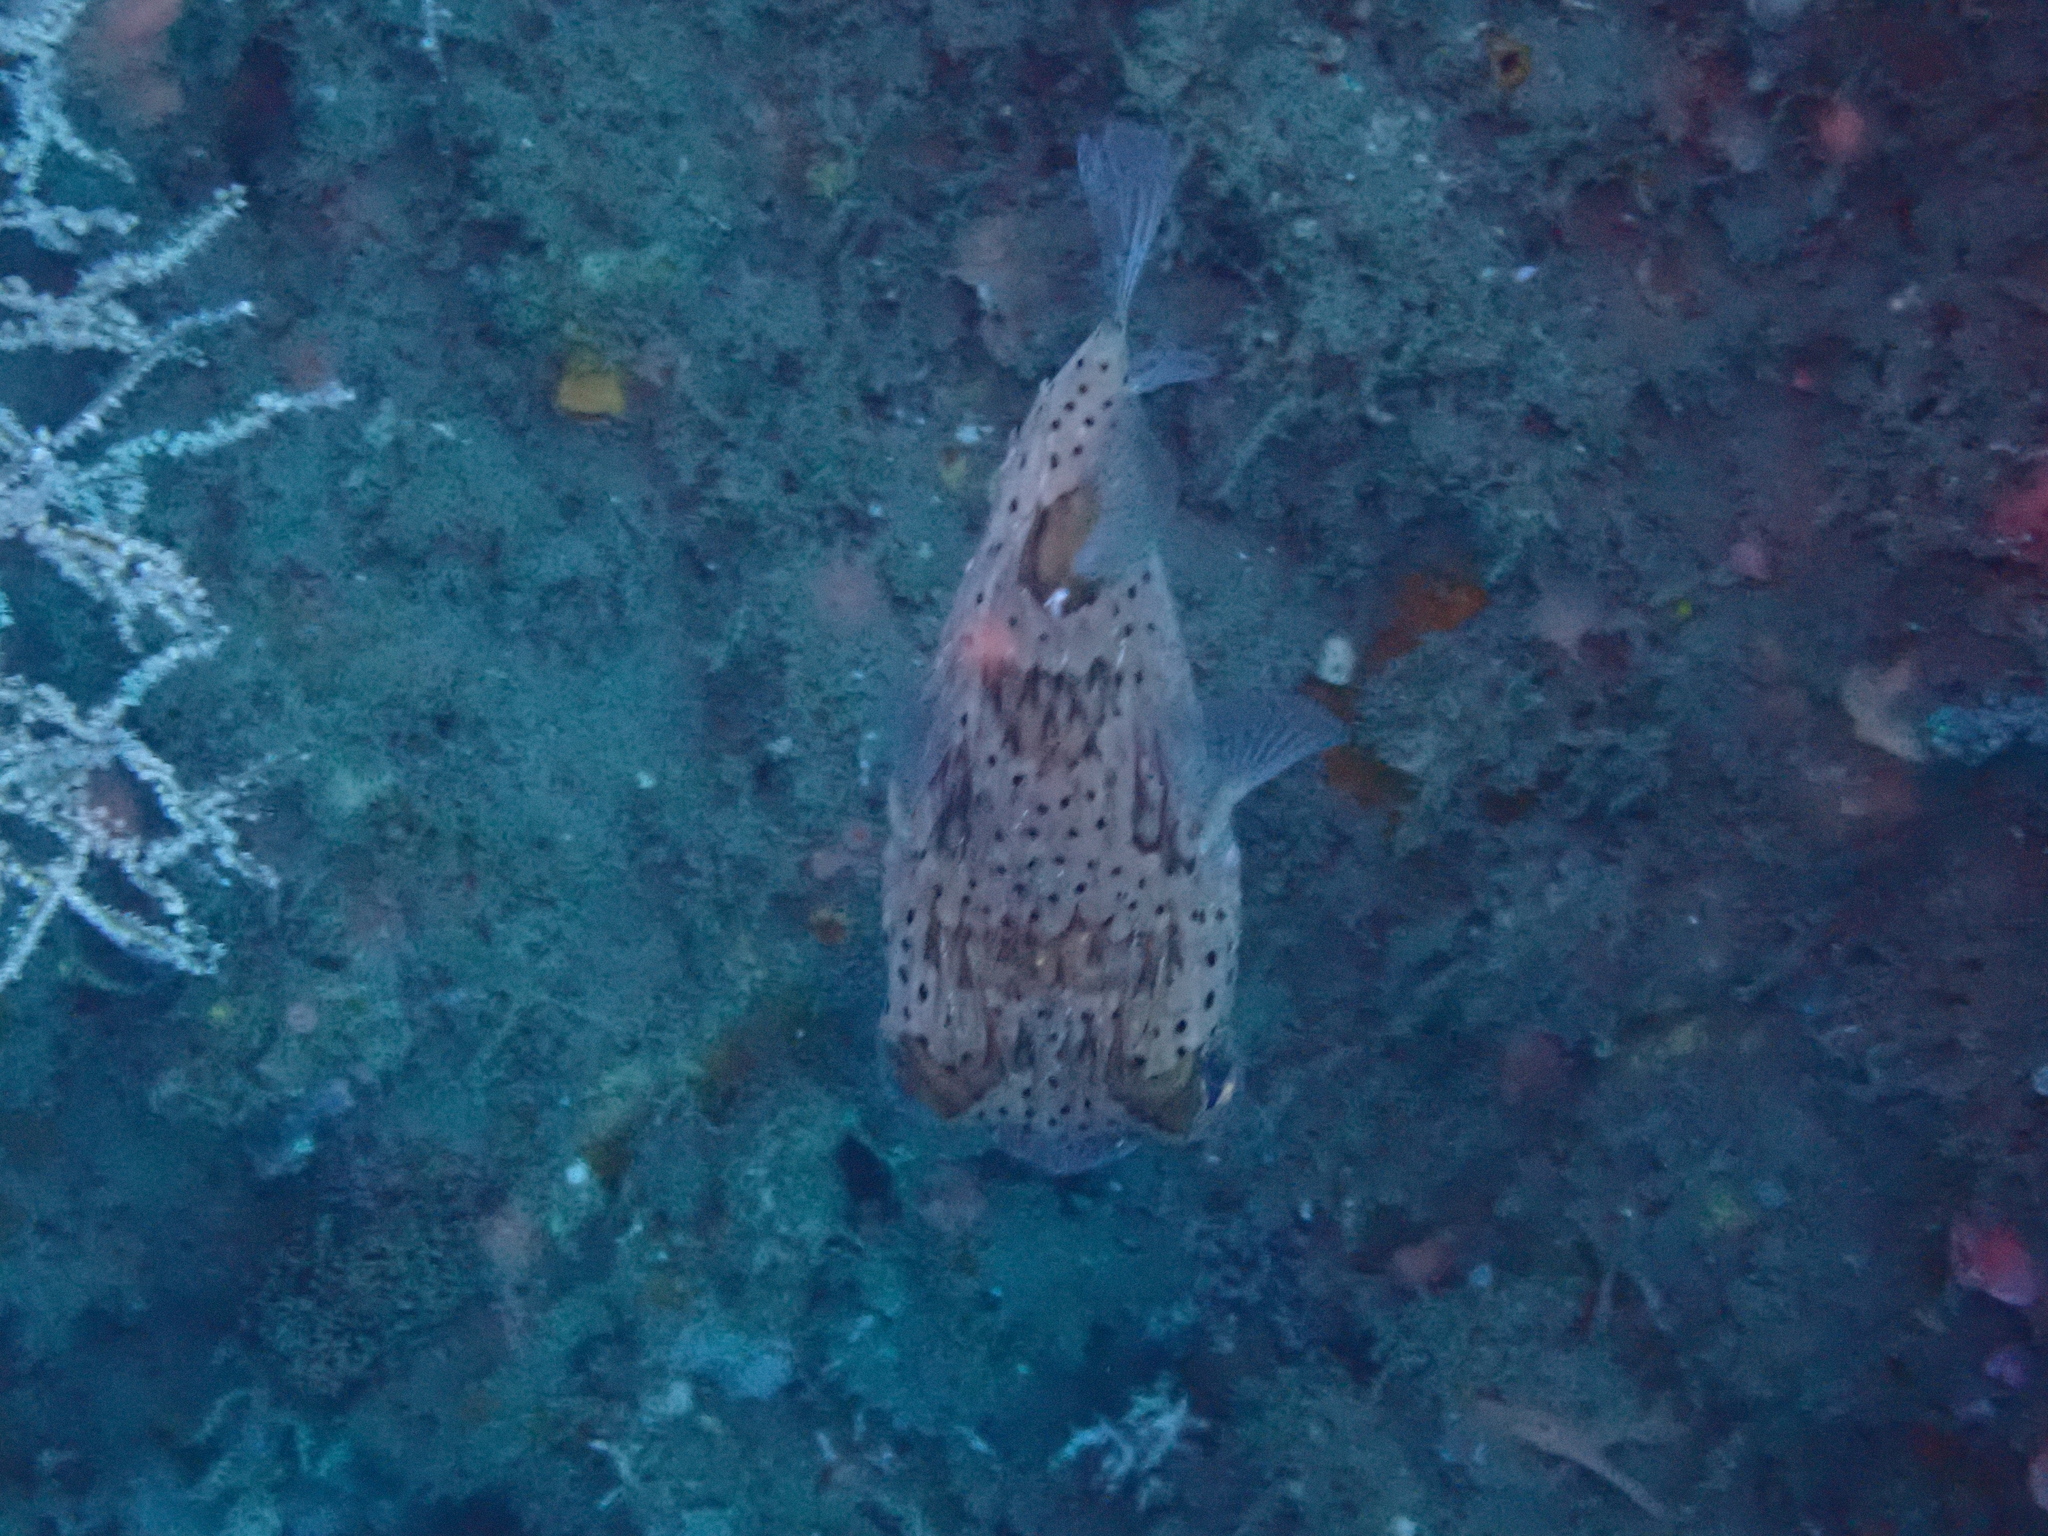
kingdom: Animalia
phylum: Chordata
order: Tetraodontiformes
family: Diodontidae
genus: Diodon
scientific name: Diodon holocanthus
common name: Balloonfish
